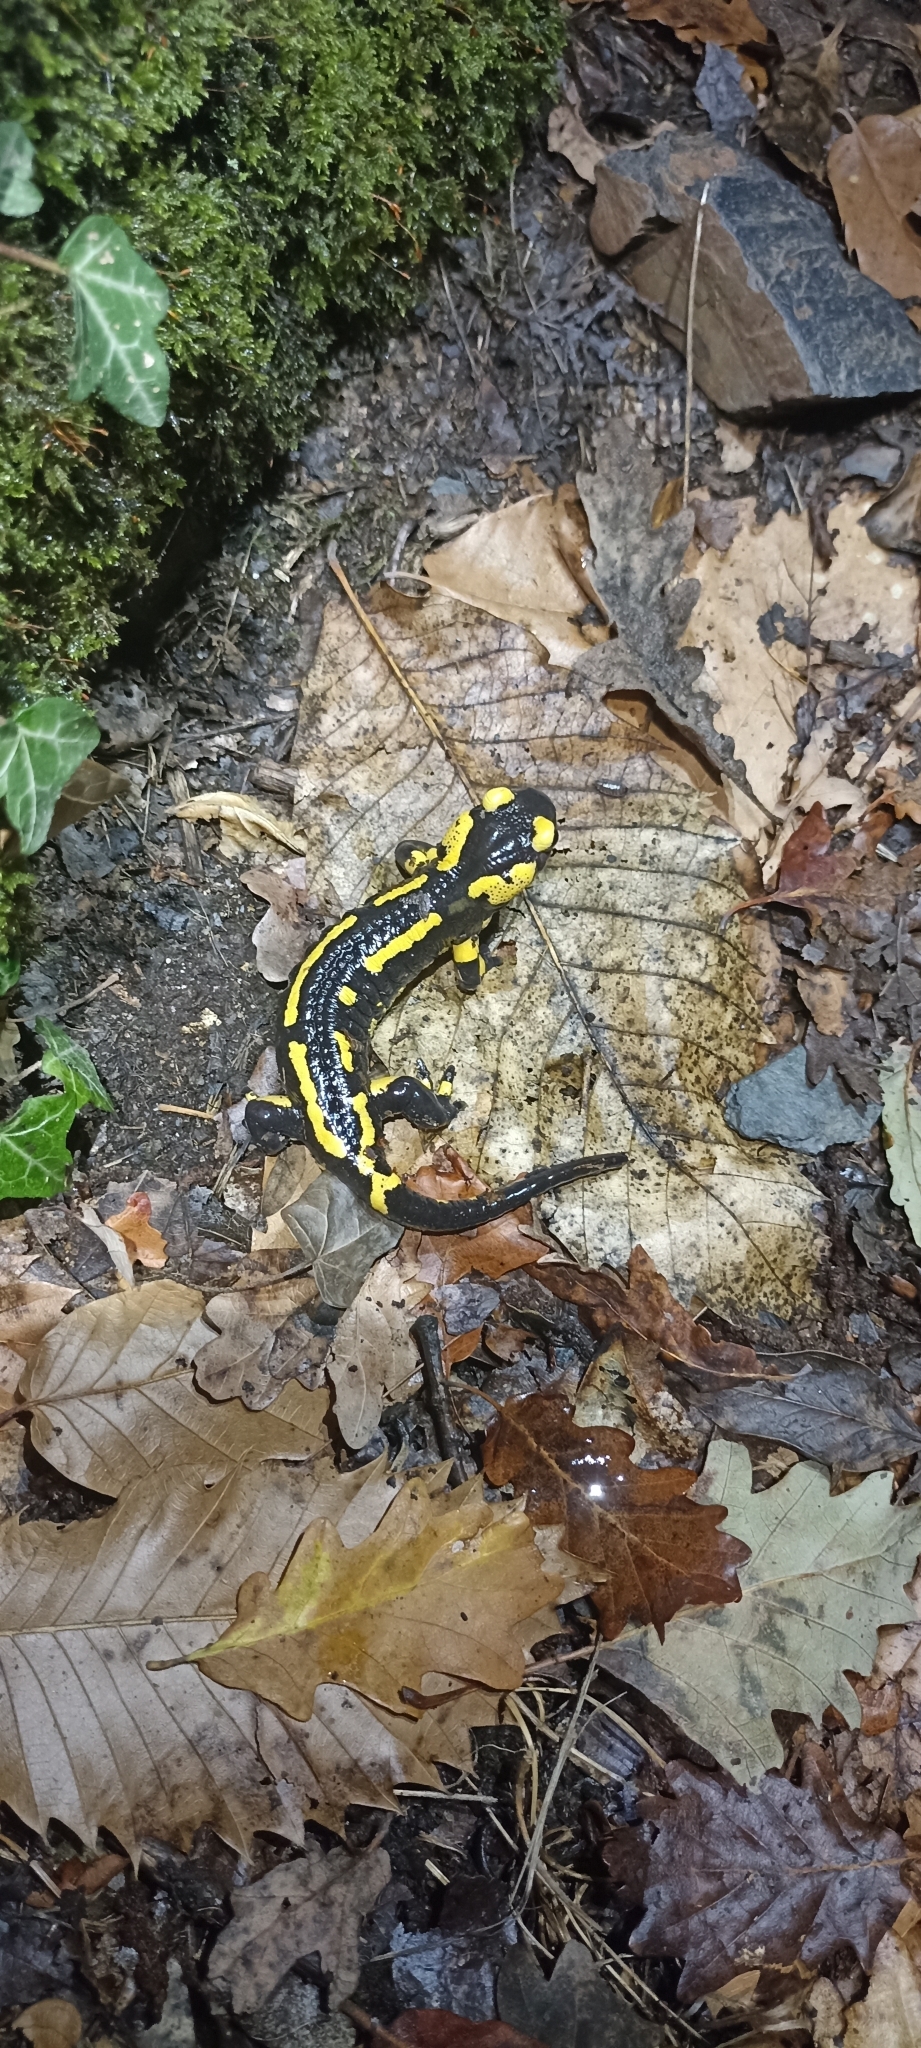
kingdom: Animalia
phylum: Chordata
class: Amphibia
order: Caudata
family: Salamandridae
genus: Salamandra
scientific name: Salamandra salamandra
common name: Fire salamander
